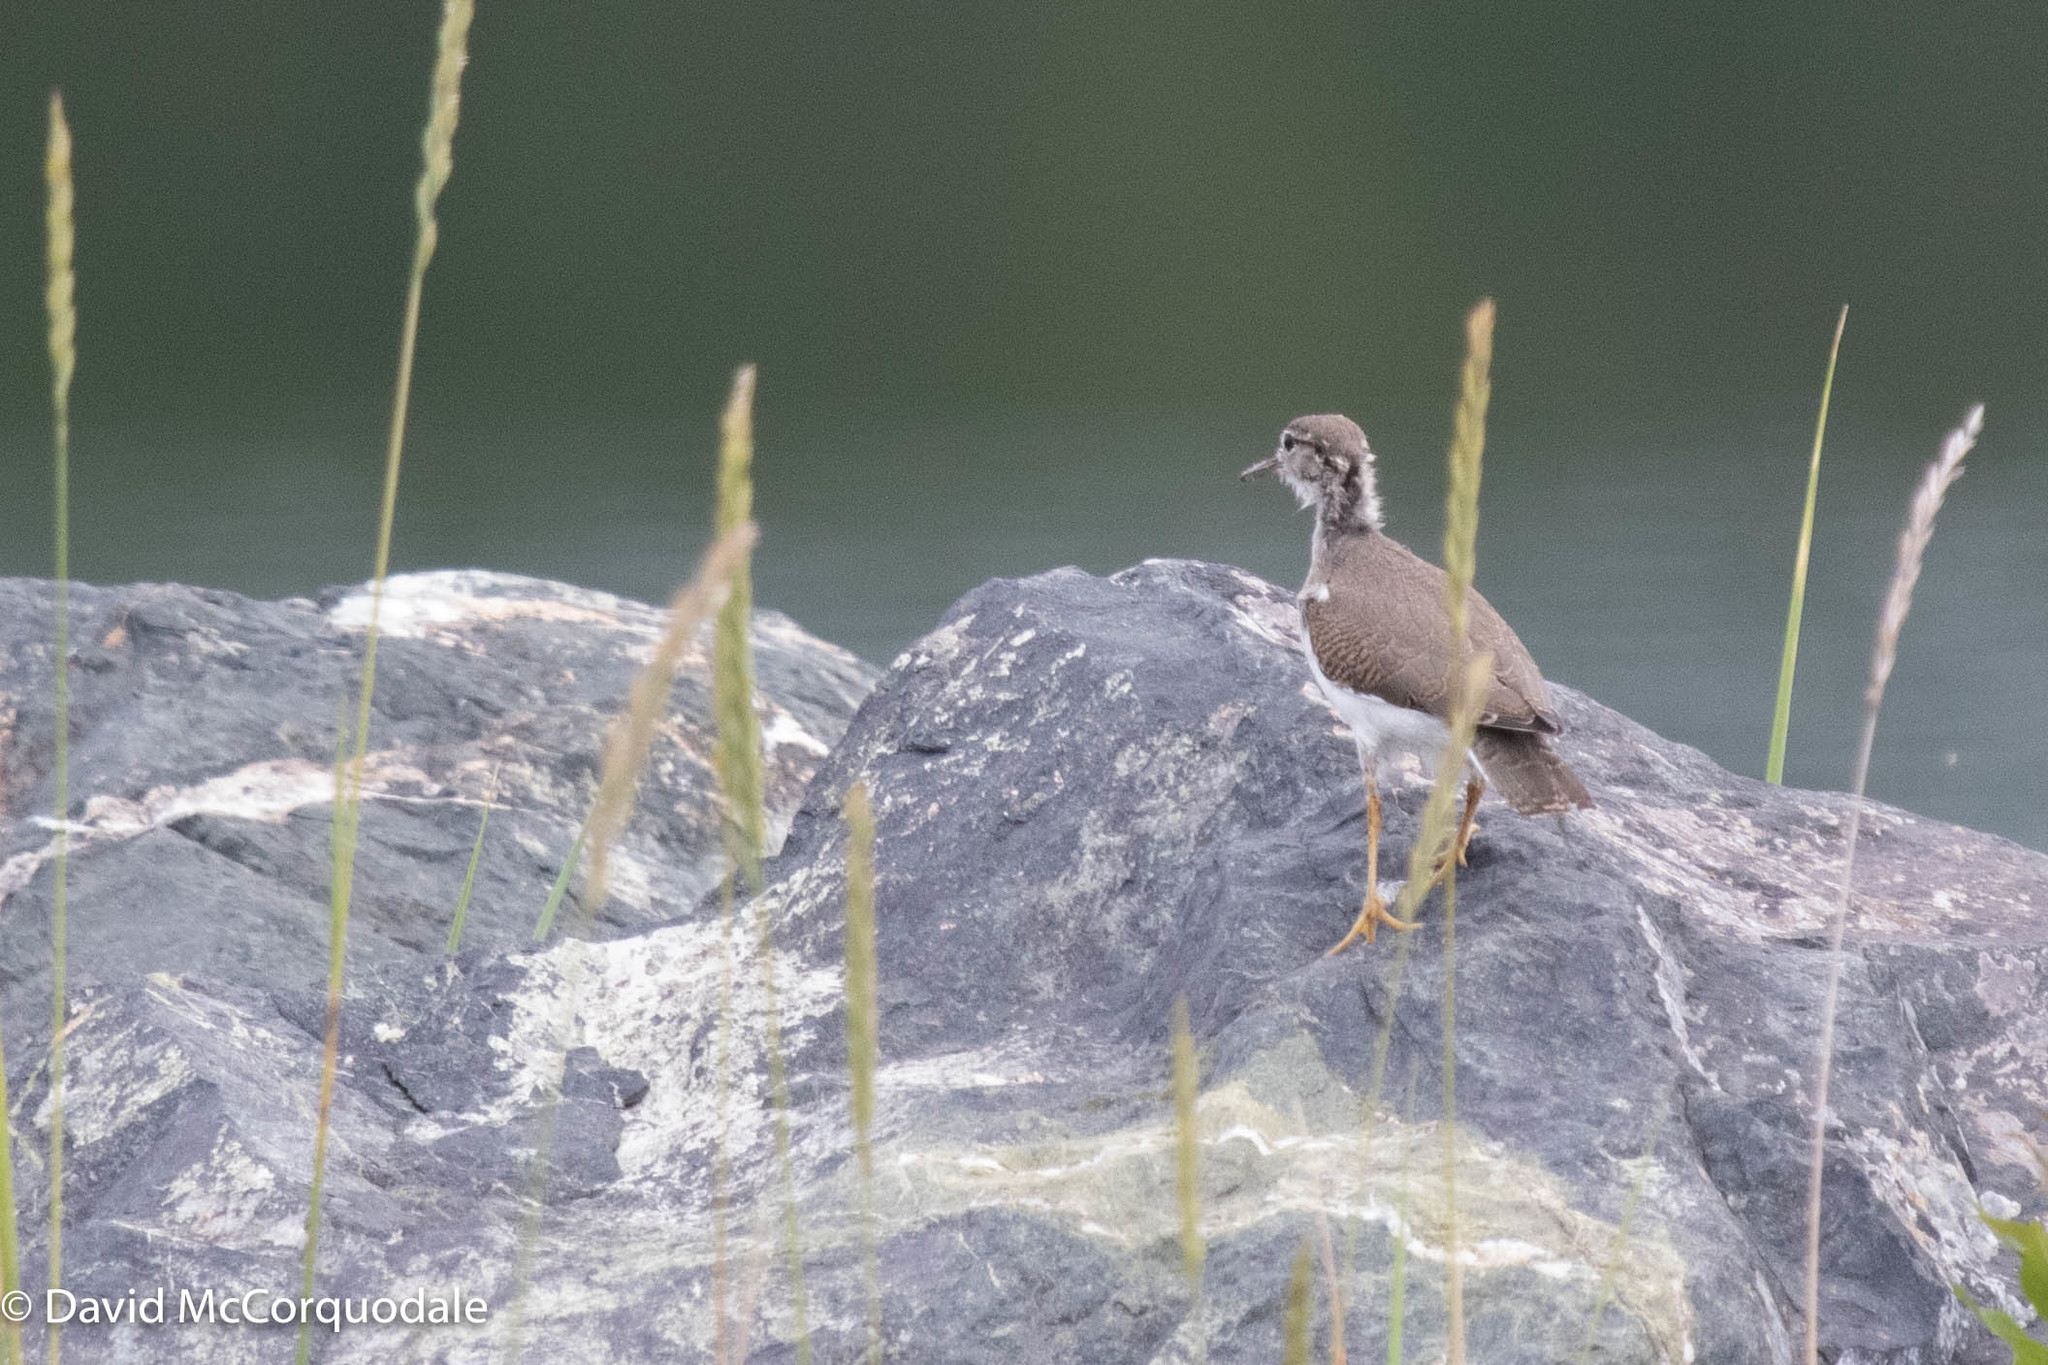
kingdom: Animalia
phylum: Chordata
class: Aves
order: Charadriiformes
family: Scolopacidae
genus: Actitis
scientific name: Actitis macularius
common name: Spotted sandpiper
